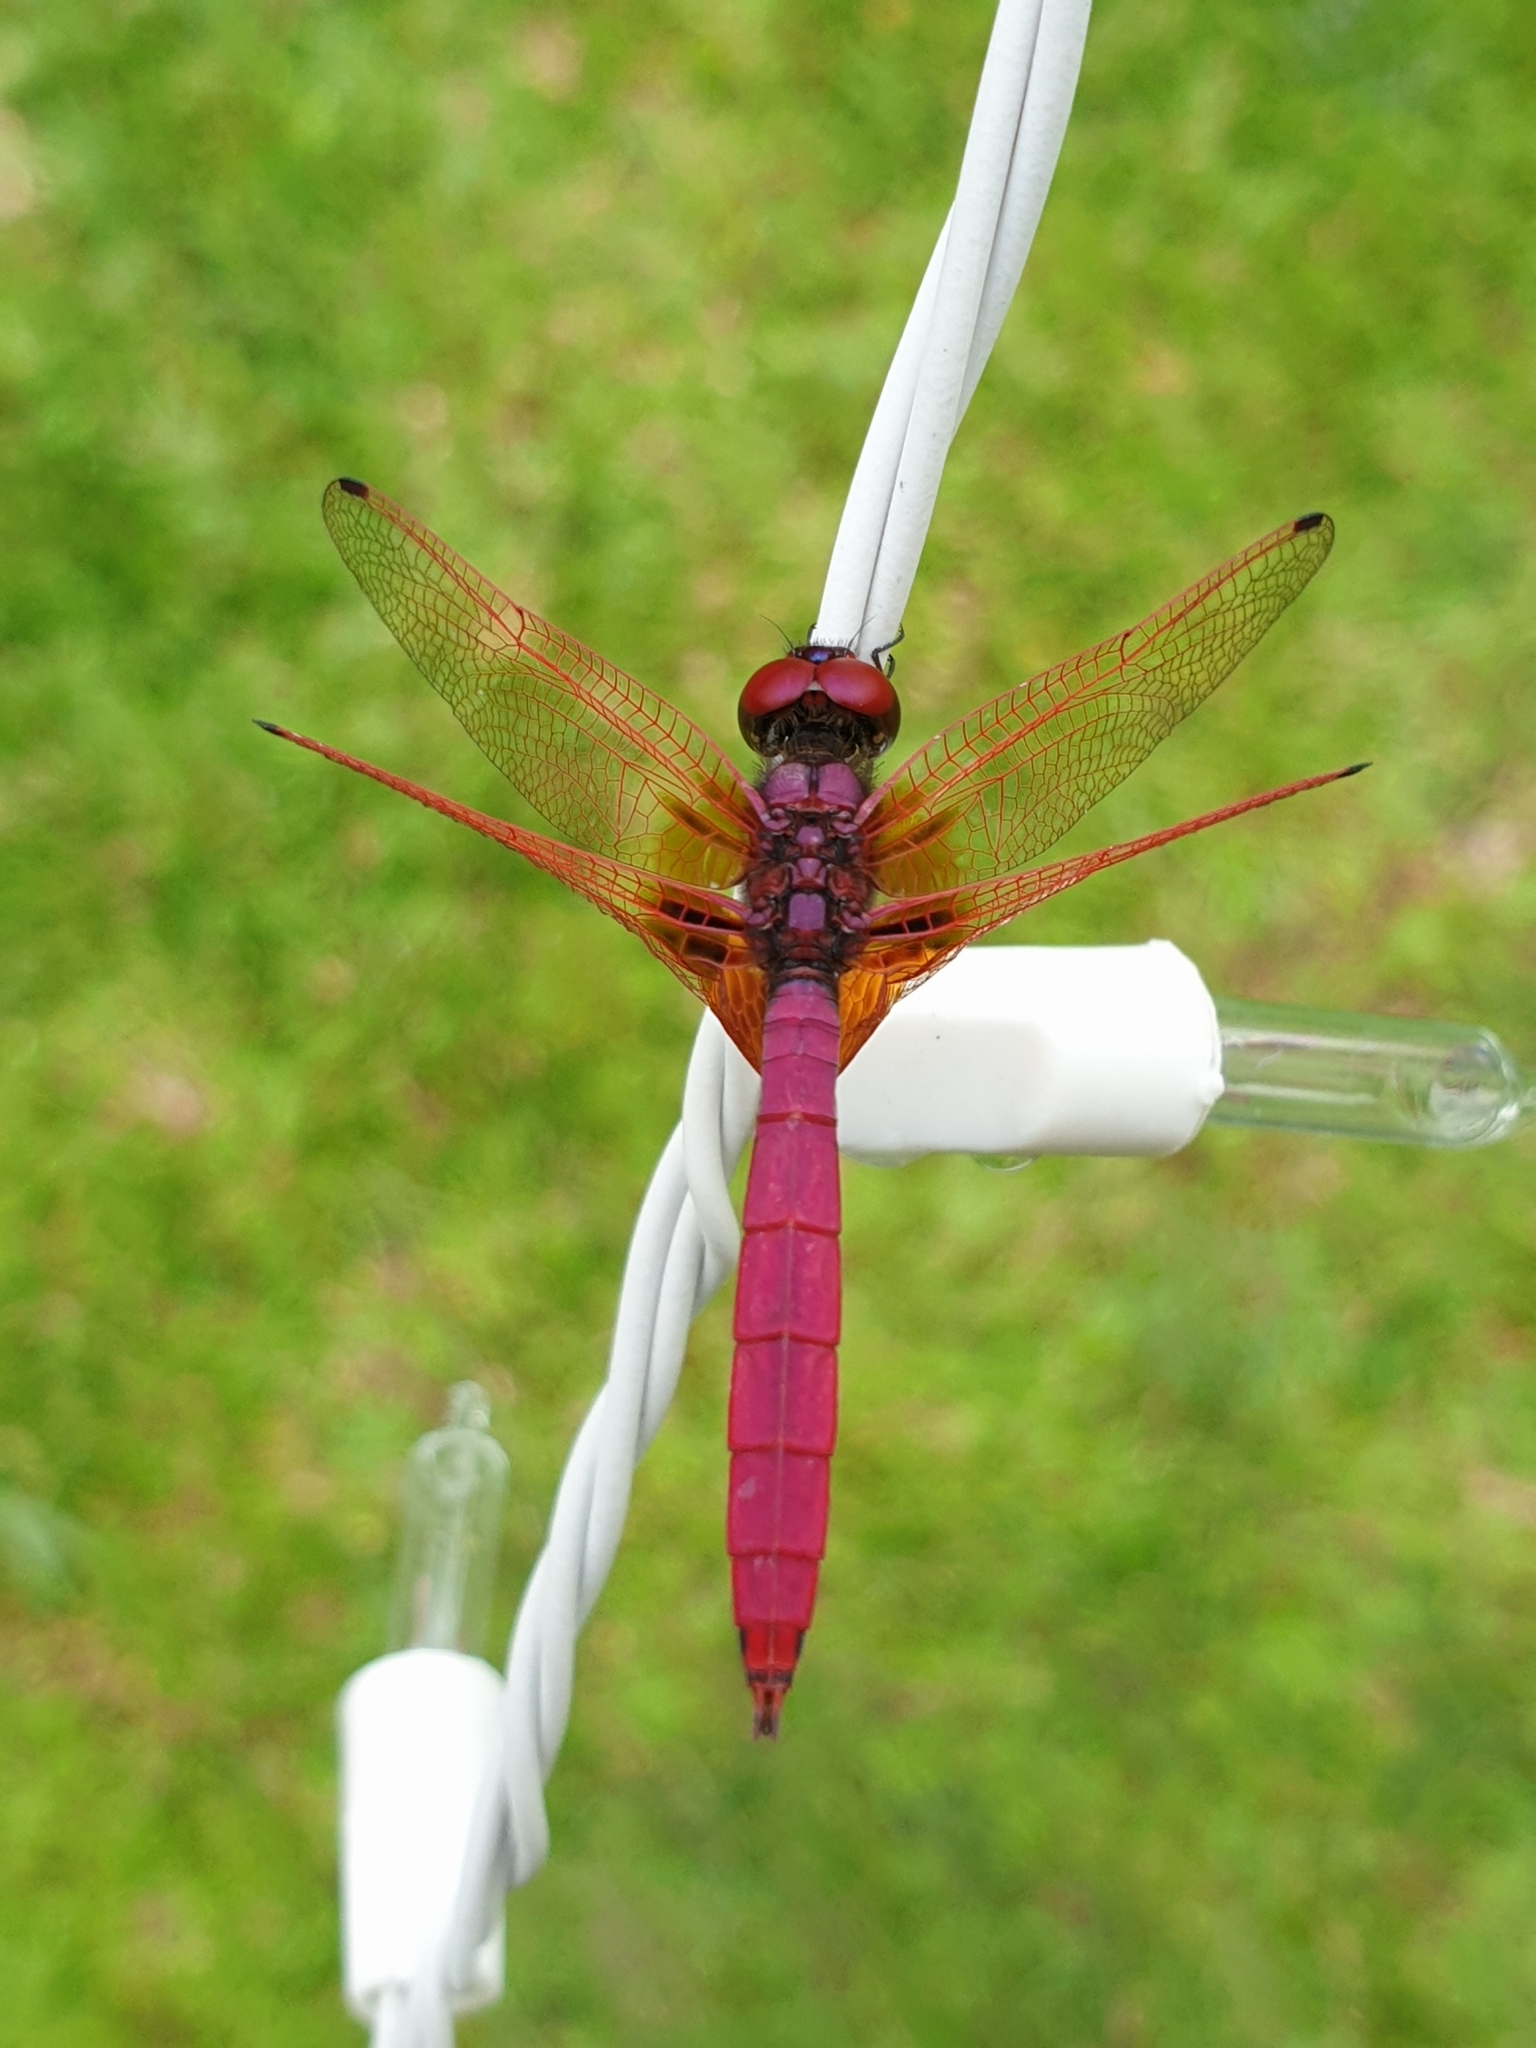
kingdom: Animalia
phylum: Arthropoda
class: Insecta
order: Odonata
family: Libellulidae
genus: Trithemis
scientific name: Trithemis aurora
